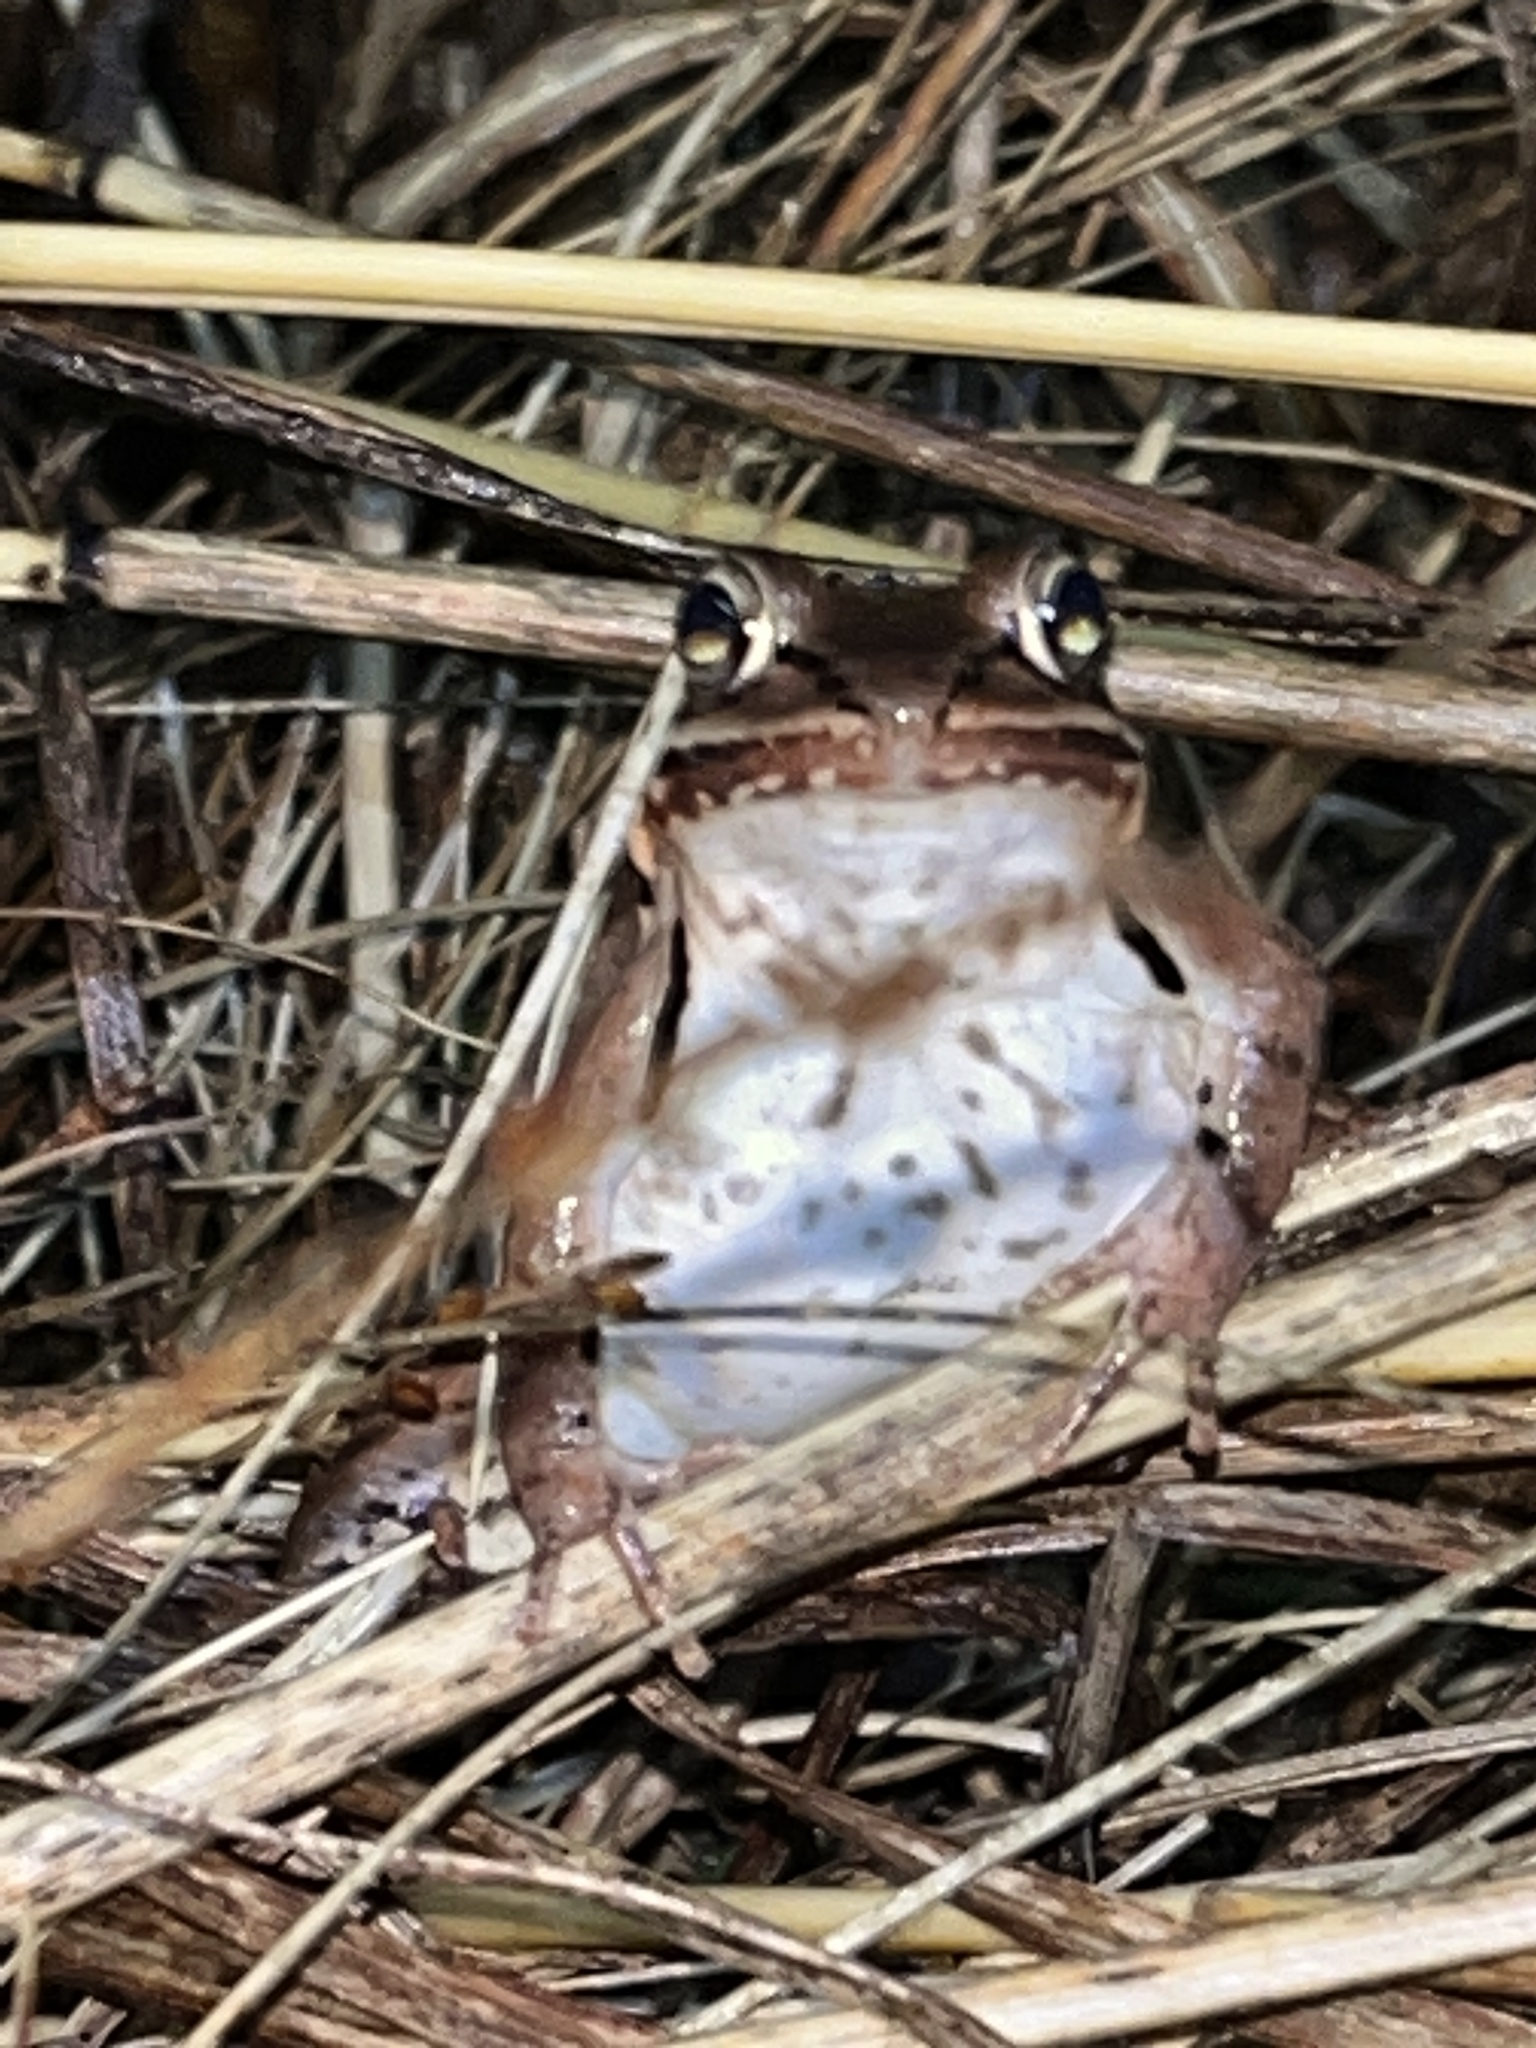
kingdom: Animalia
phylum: Chordata
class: Amphibia
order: Anura
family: Ranidae
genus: Lithobates
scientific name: Lithobates sylvaticus
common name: Wood frog
